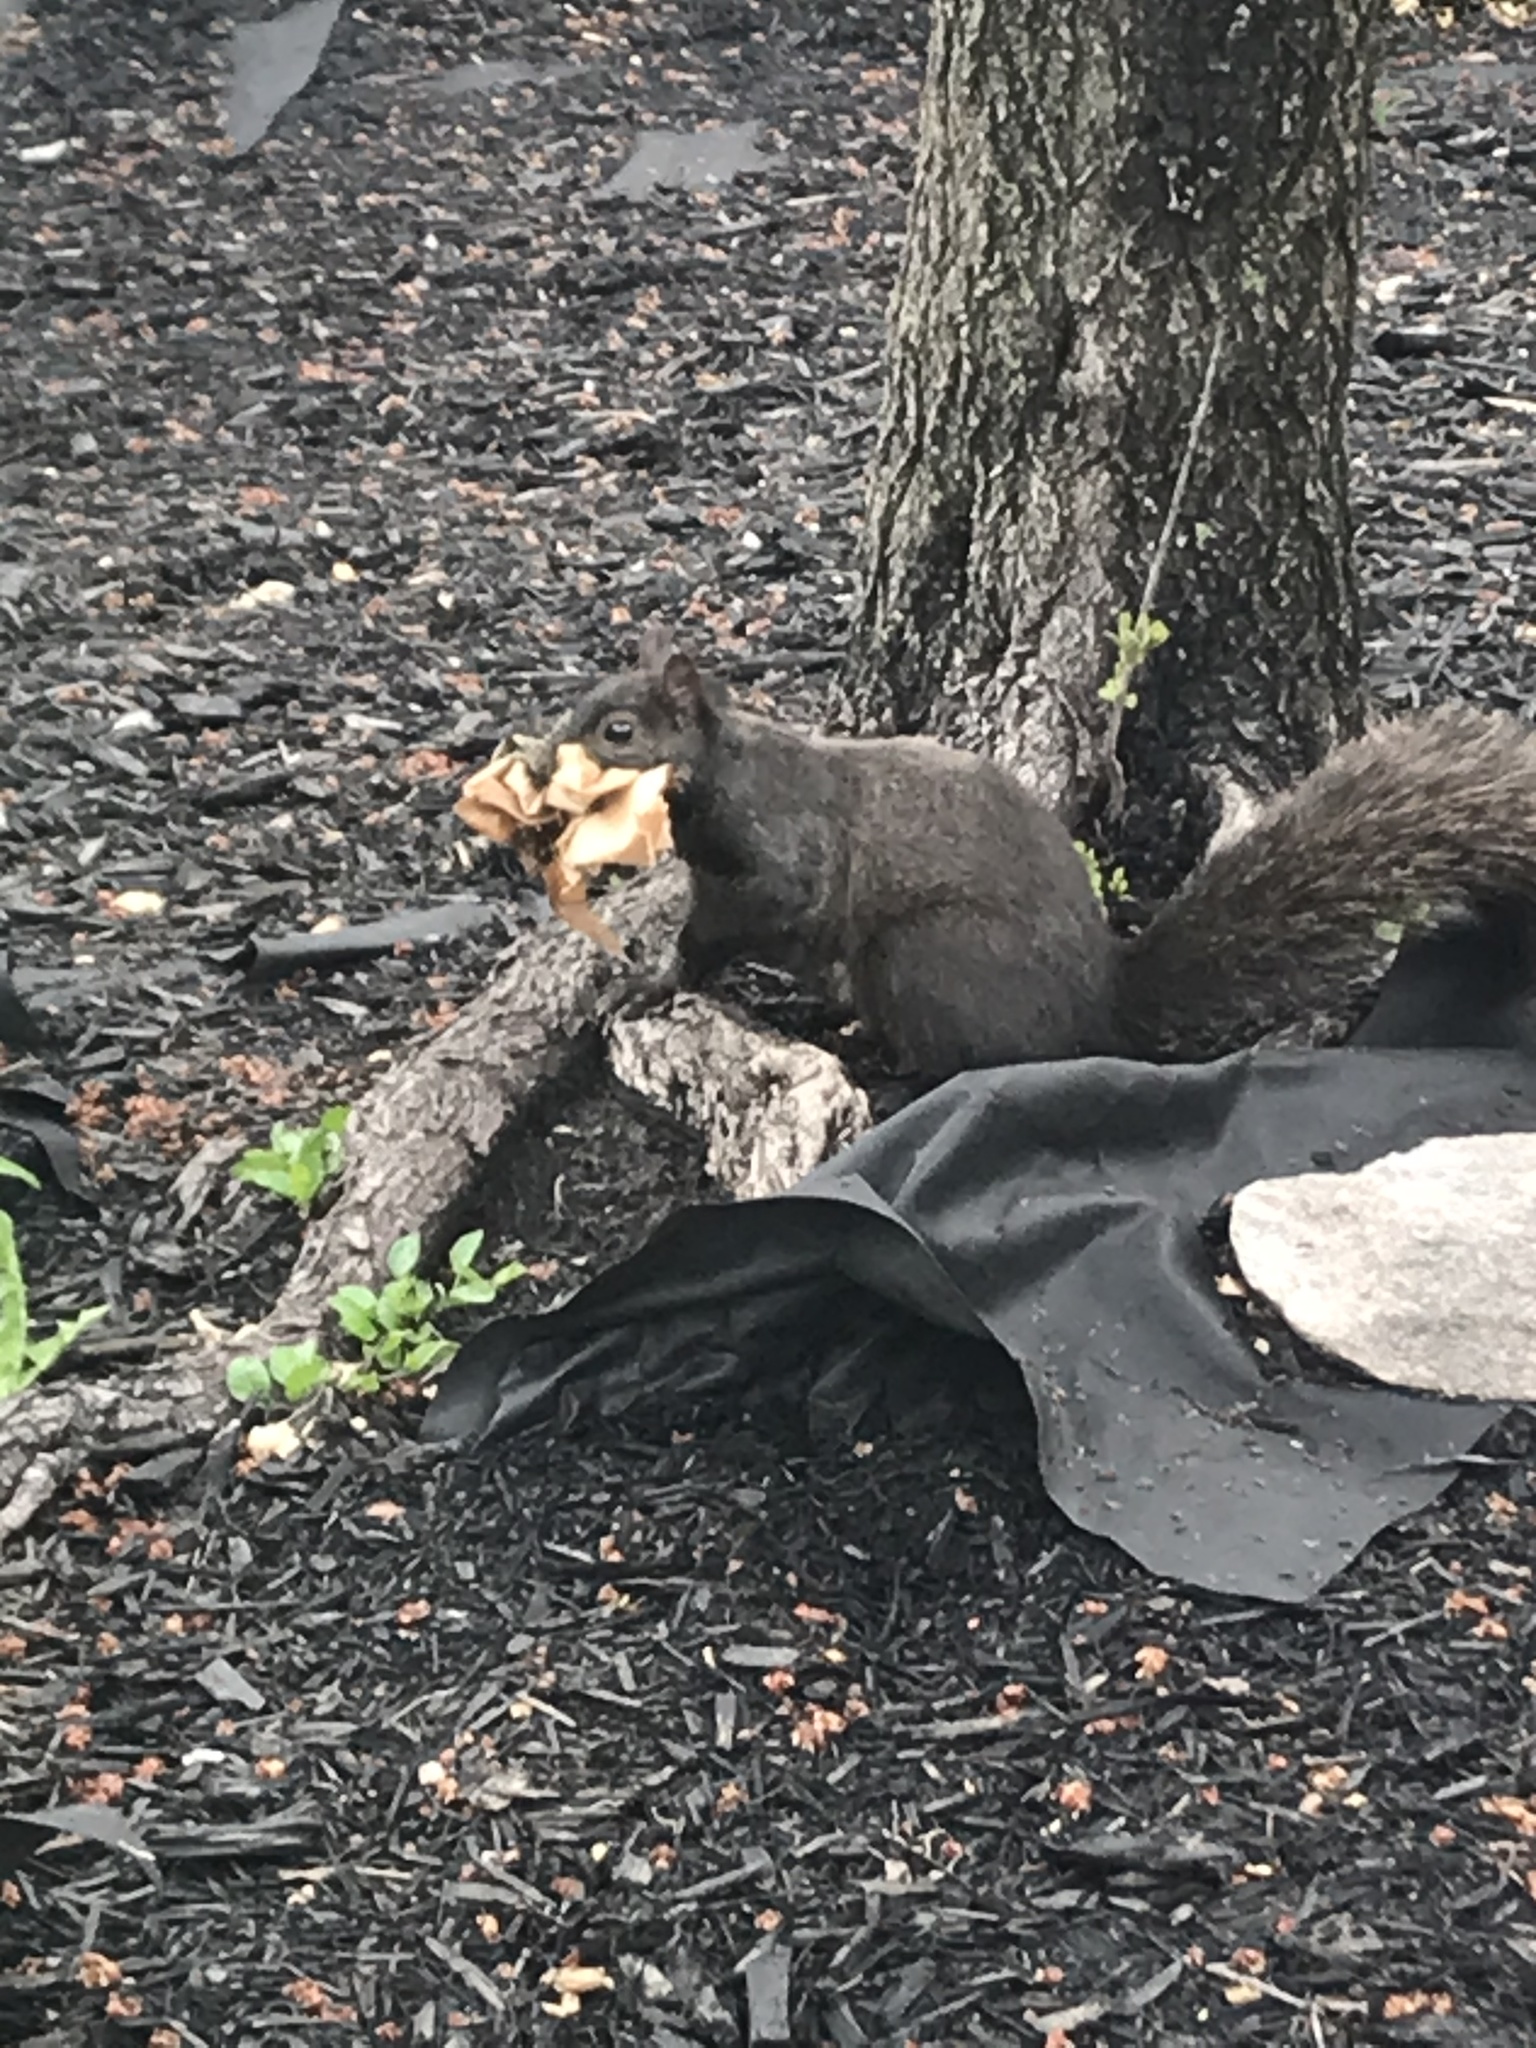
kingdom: Animalia
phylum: Chordata
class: Mammalia
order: Rodentia
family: Sciuridae
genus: Sciurus
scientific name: Sciurus carolinensis
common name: Eastern gray squirrel
